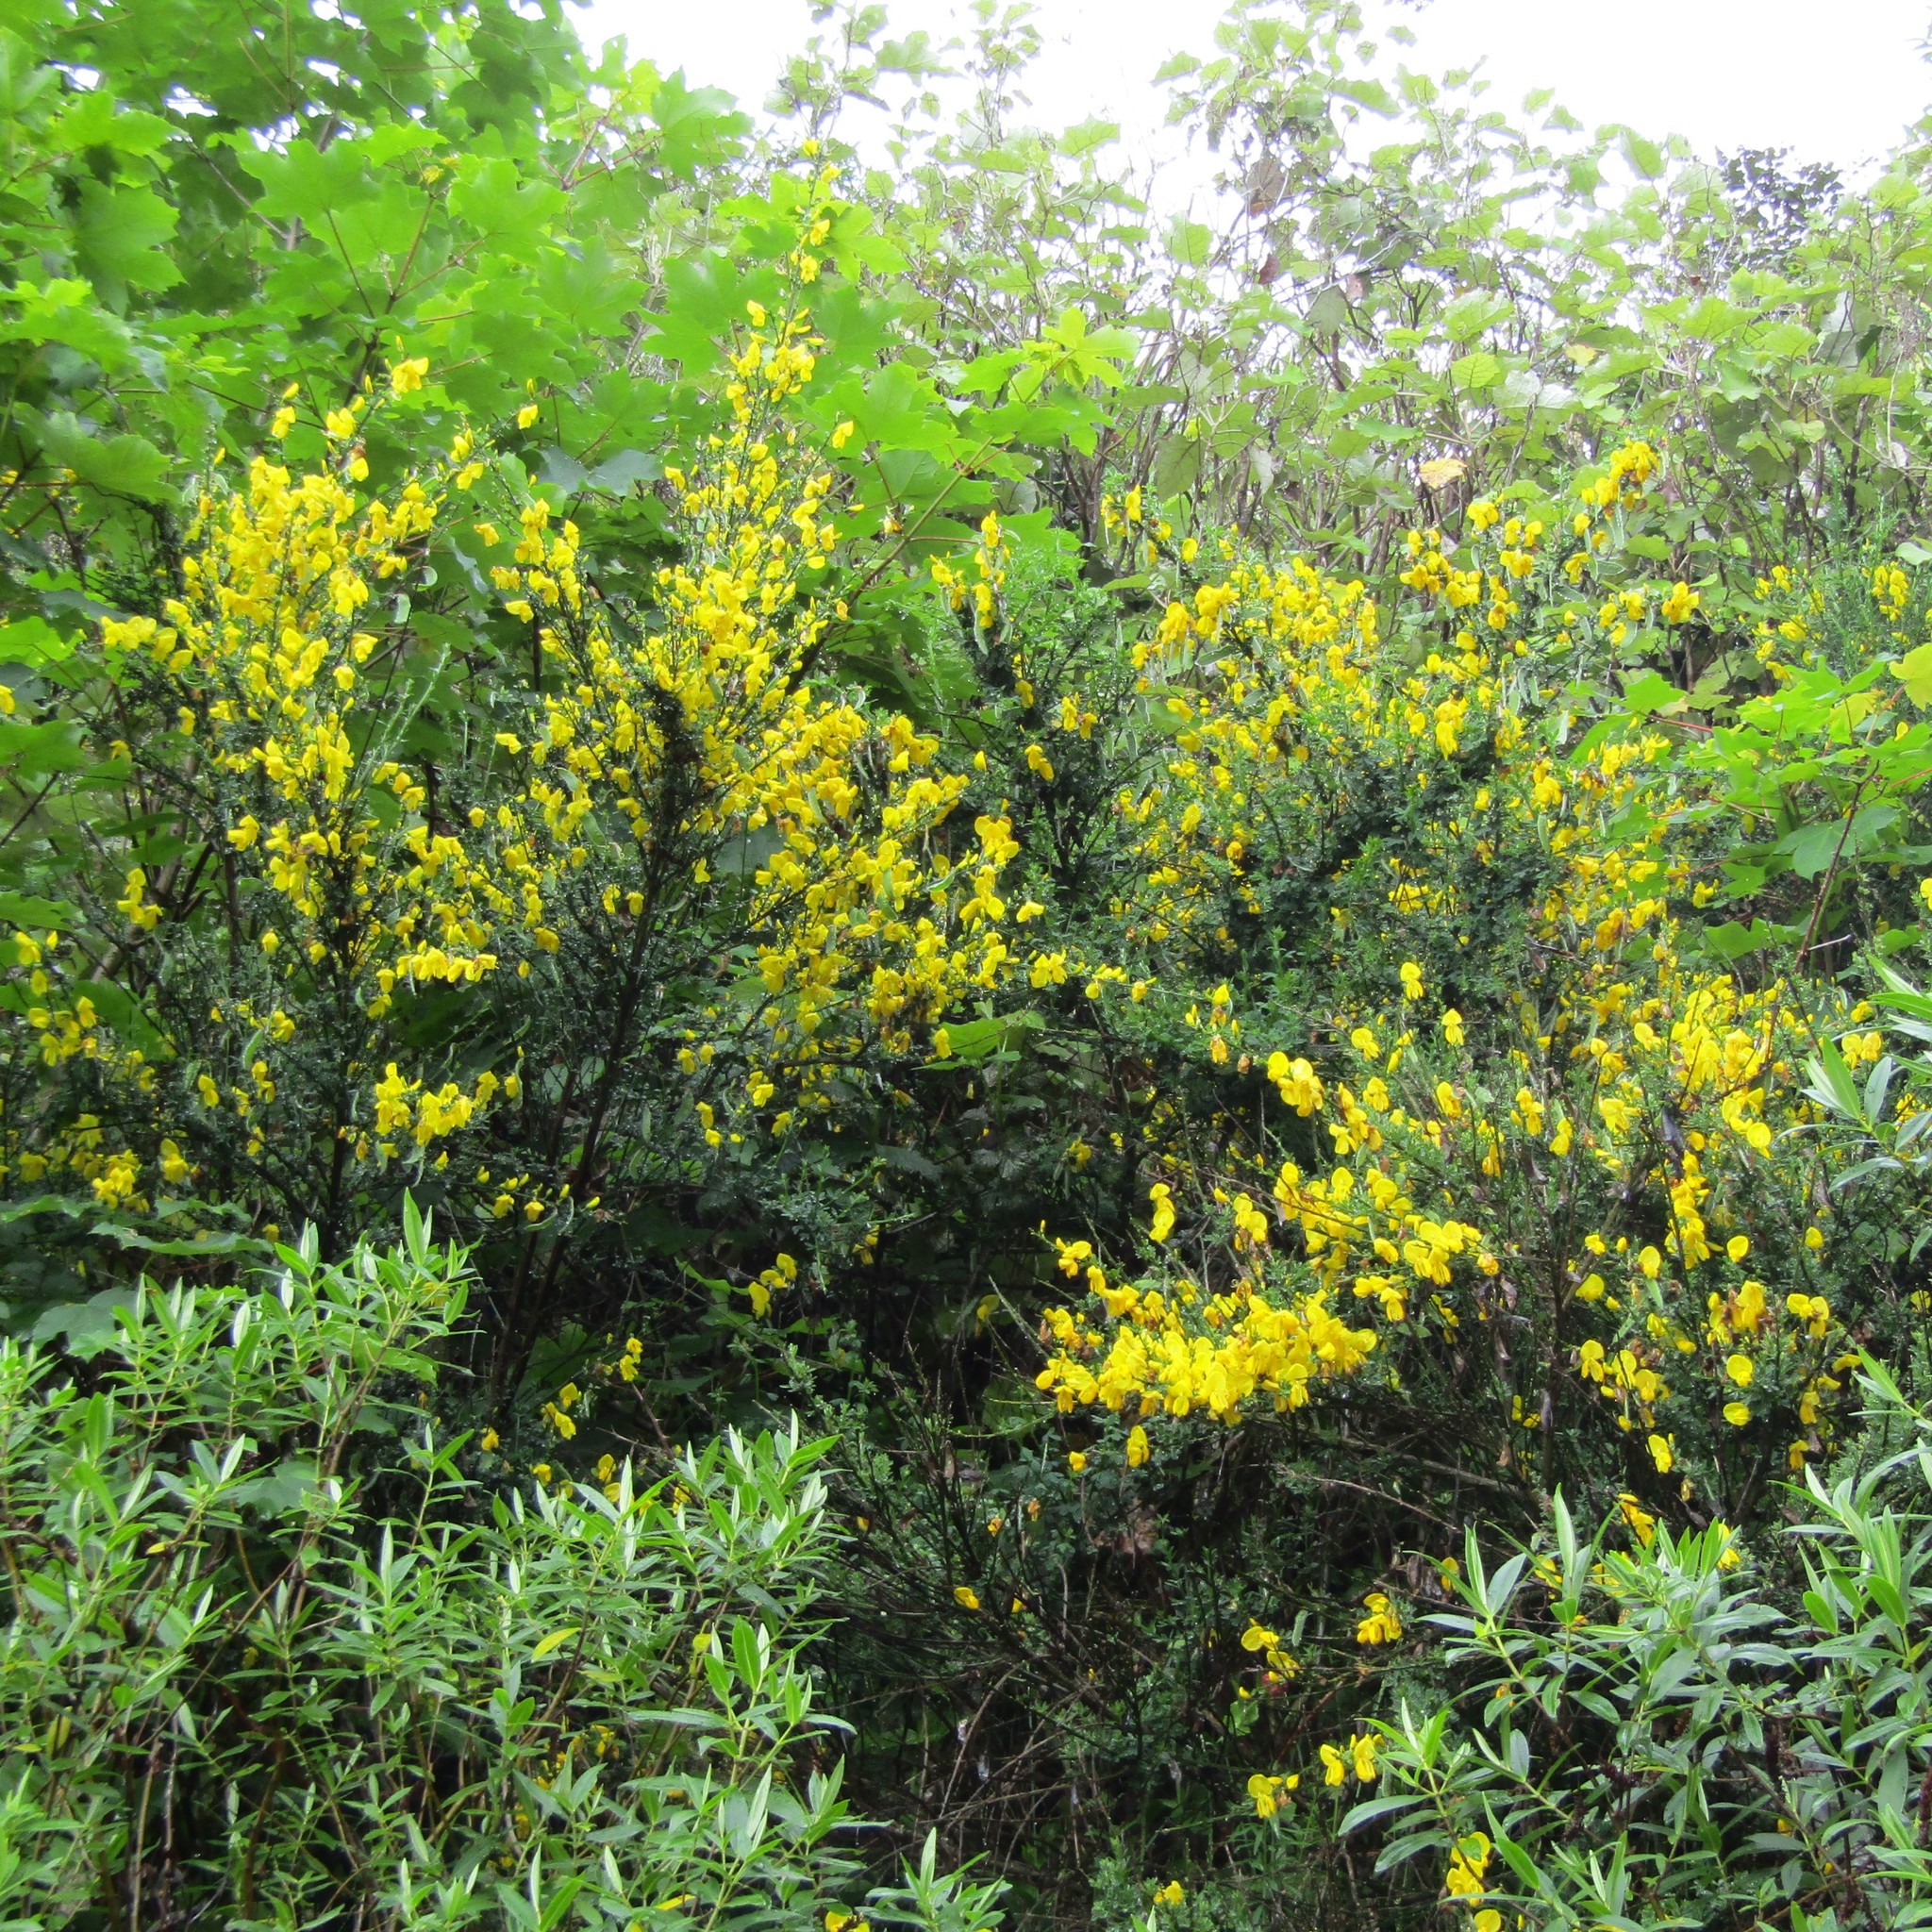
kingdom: Plantae
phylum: Tracheophyta
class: Magnoliopsida
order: Fabales
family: Fabaceae
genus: Cytisus
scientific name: Cytisus scoparius
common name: Scotch broom
